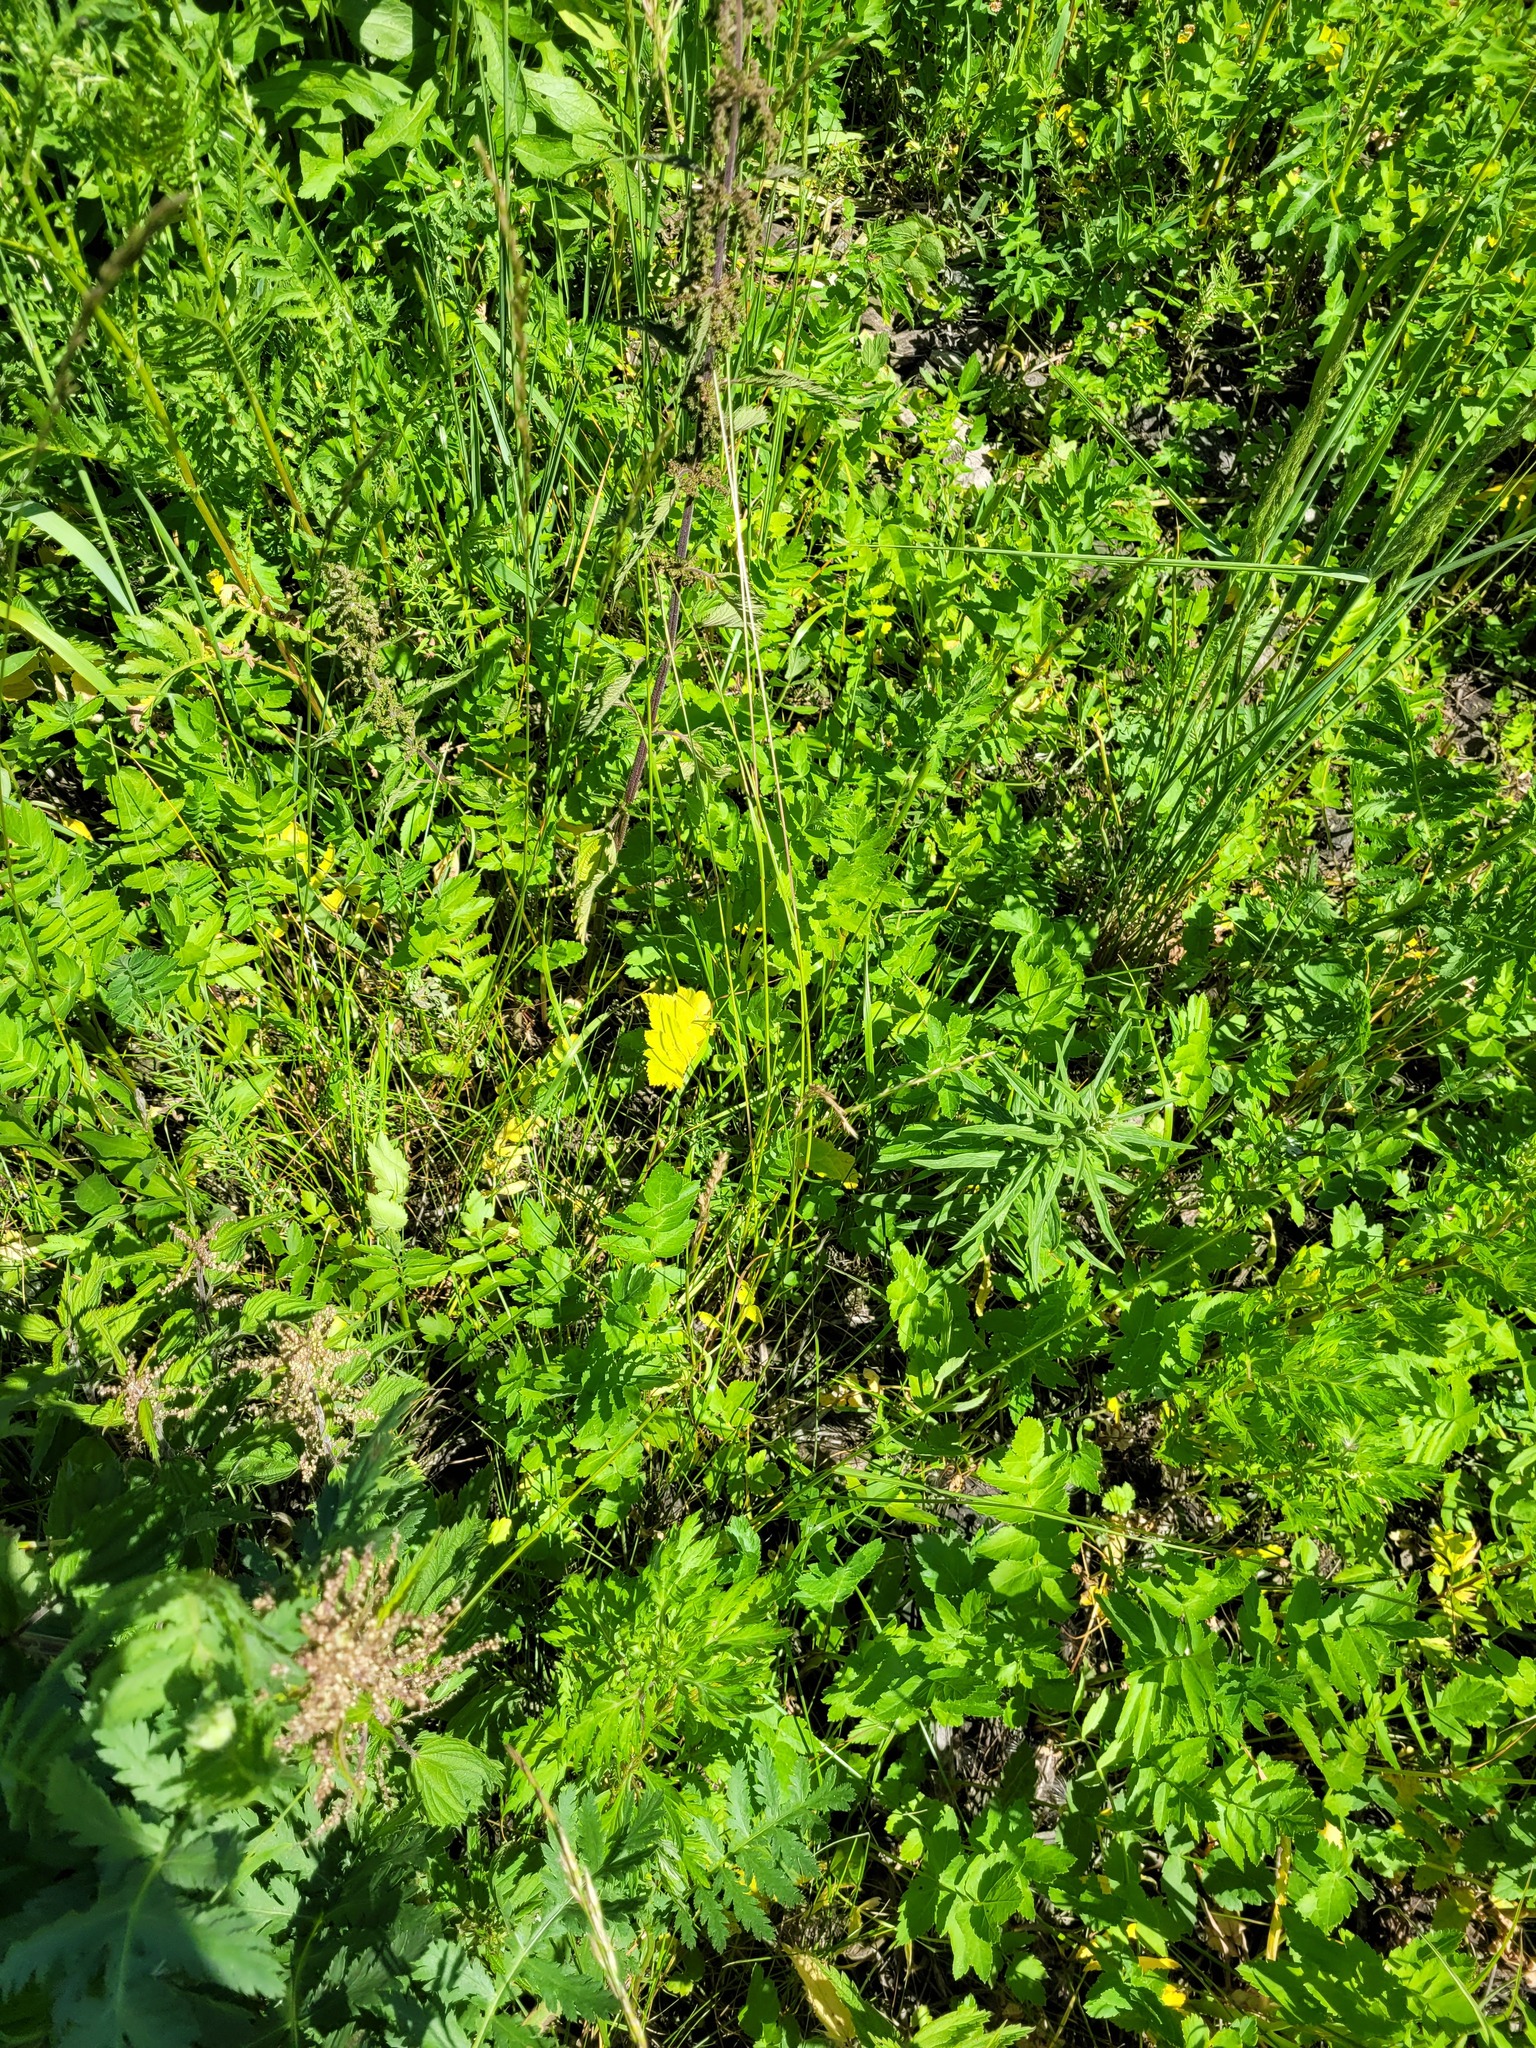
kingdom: Plantae
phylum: Tracheophyta
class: Liliopsida
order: Poales
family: Poaceae
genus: Lolium
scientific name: Lolium pratense
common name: Dover grass
